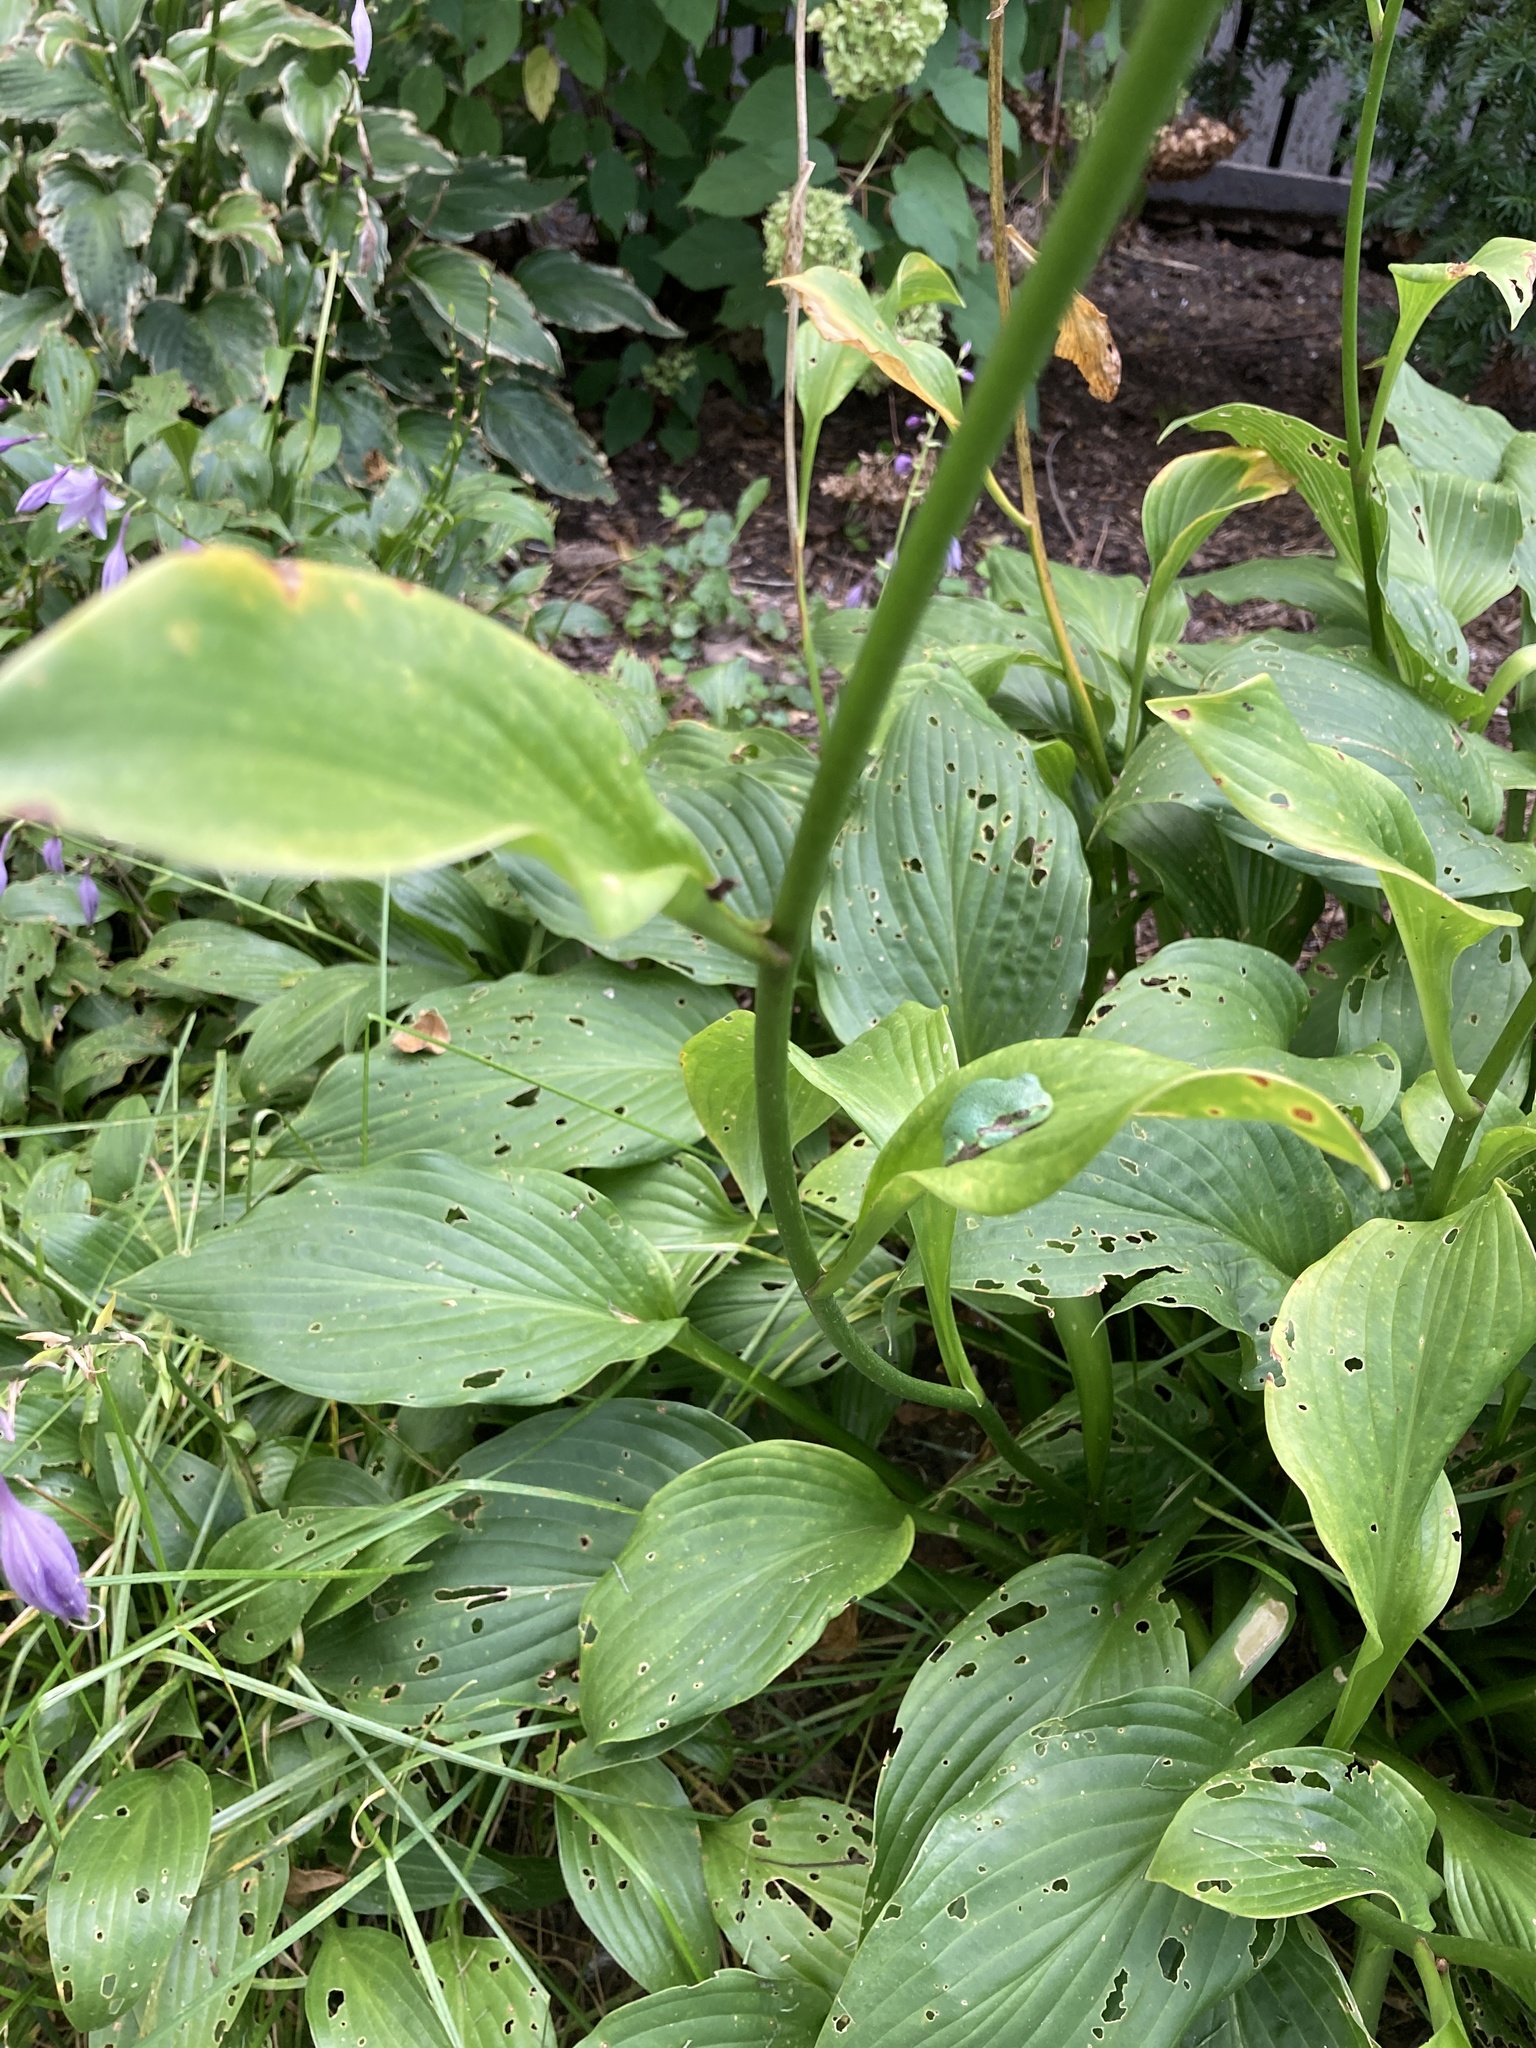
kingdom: Animalia
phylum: Chordata
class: Amphibia
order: Anura
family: Hylidae
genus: Hyla
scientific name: Hyla
